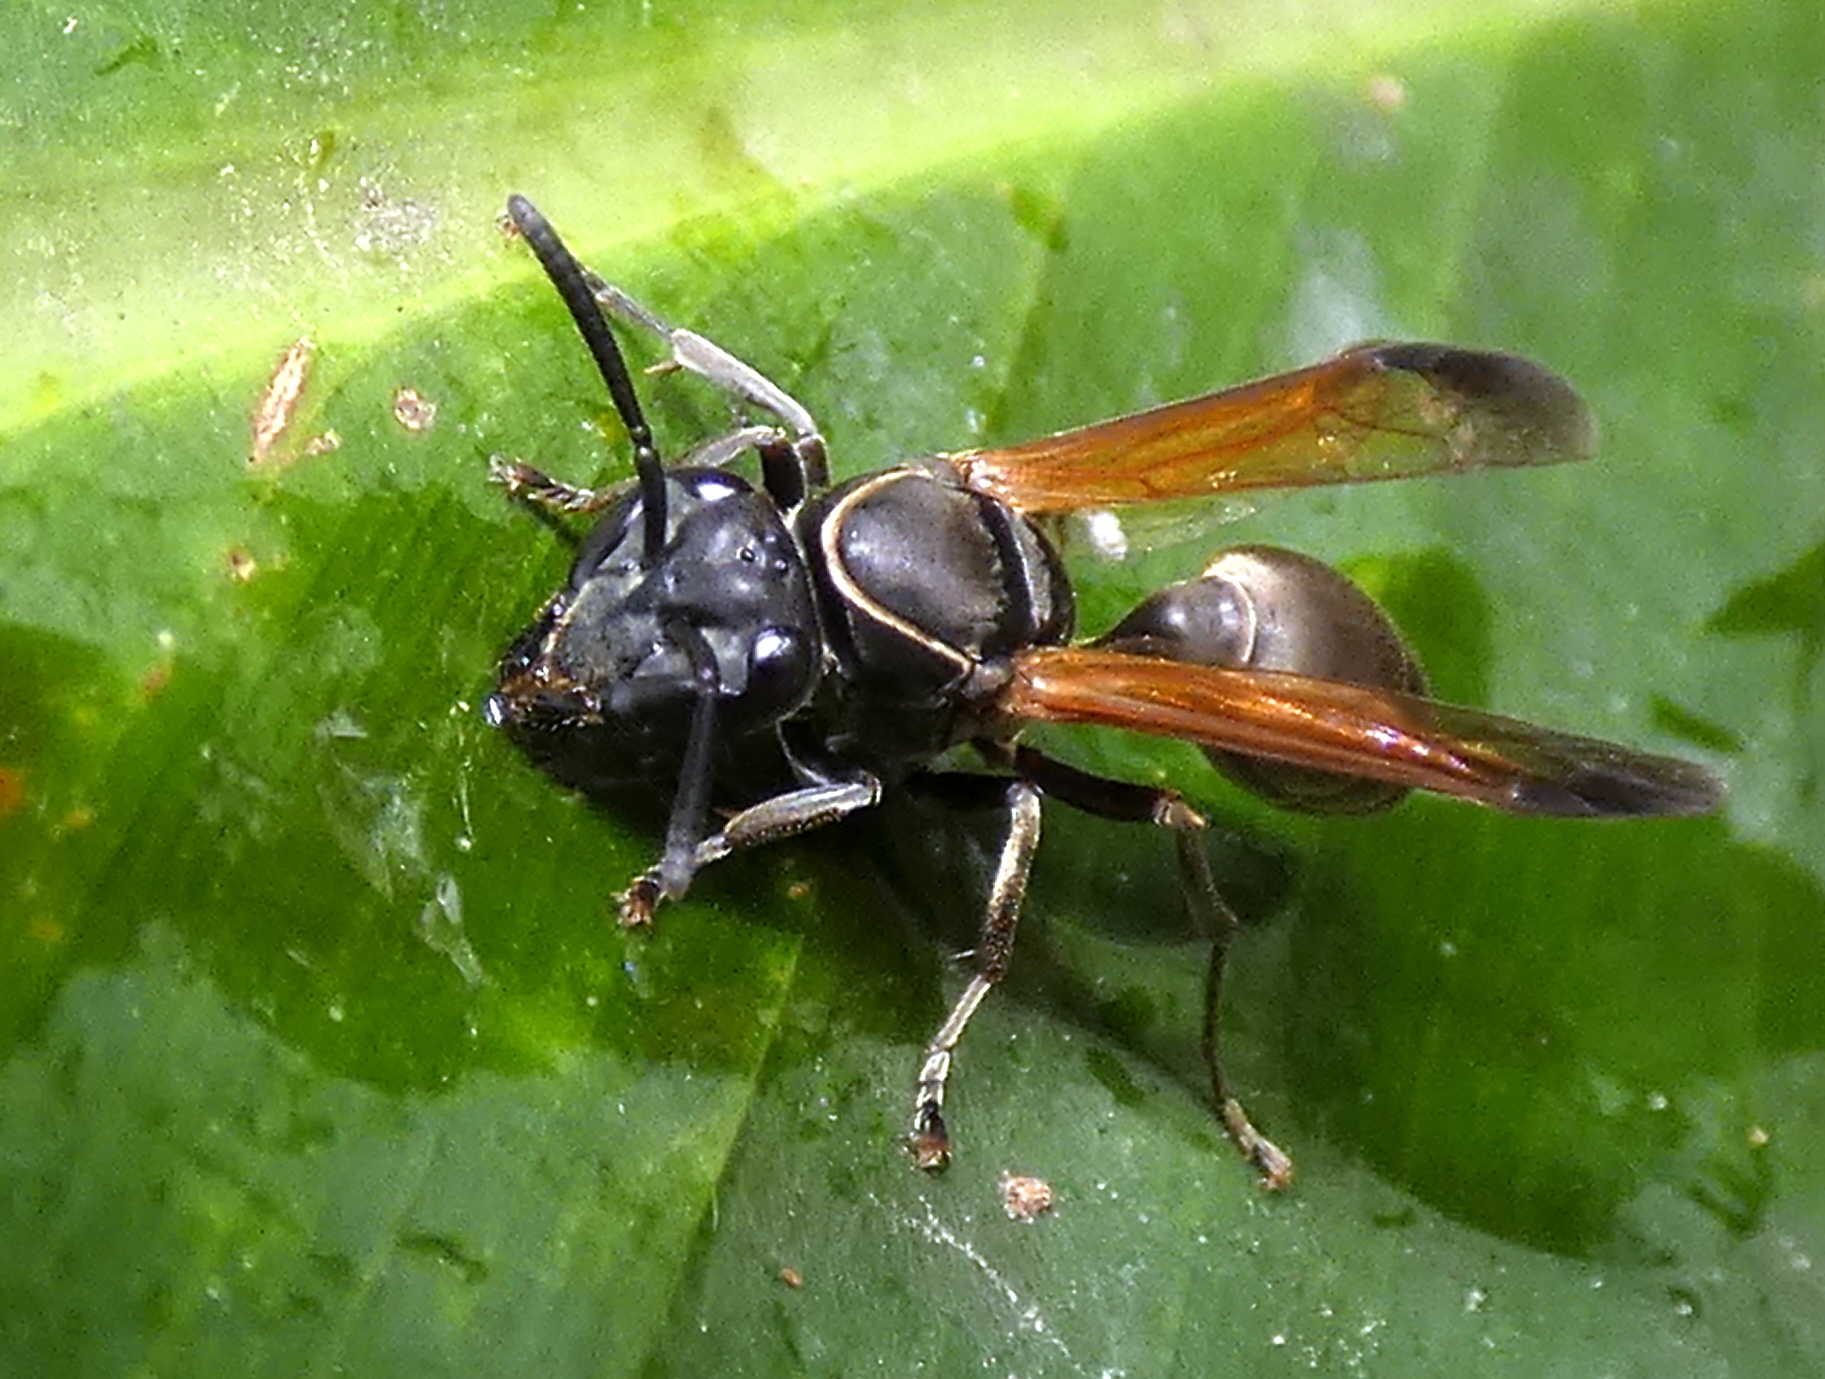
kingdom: Animalia
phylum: Arthropoda
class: Insecta
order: Hymenoptera
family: Eumenidae
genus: Polybia
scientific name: Polybia rejecta
